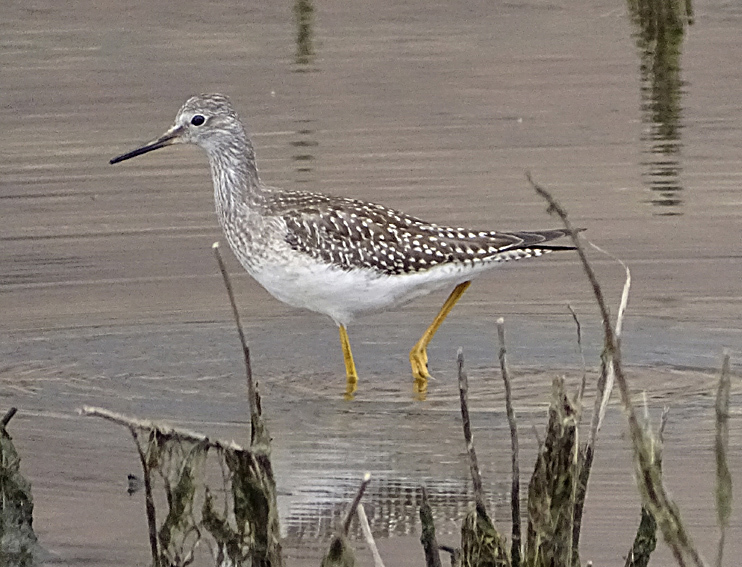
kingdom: Animalia
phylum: Chordata
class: Aves
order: Charadriiformes
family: Scolopacidae
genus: Tringa
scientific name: Tringa flavipes
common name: Lesser yellowlegs
